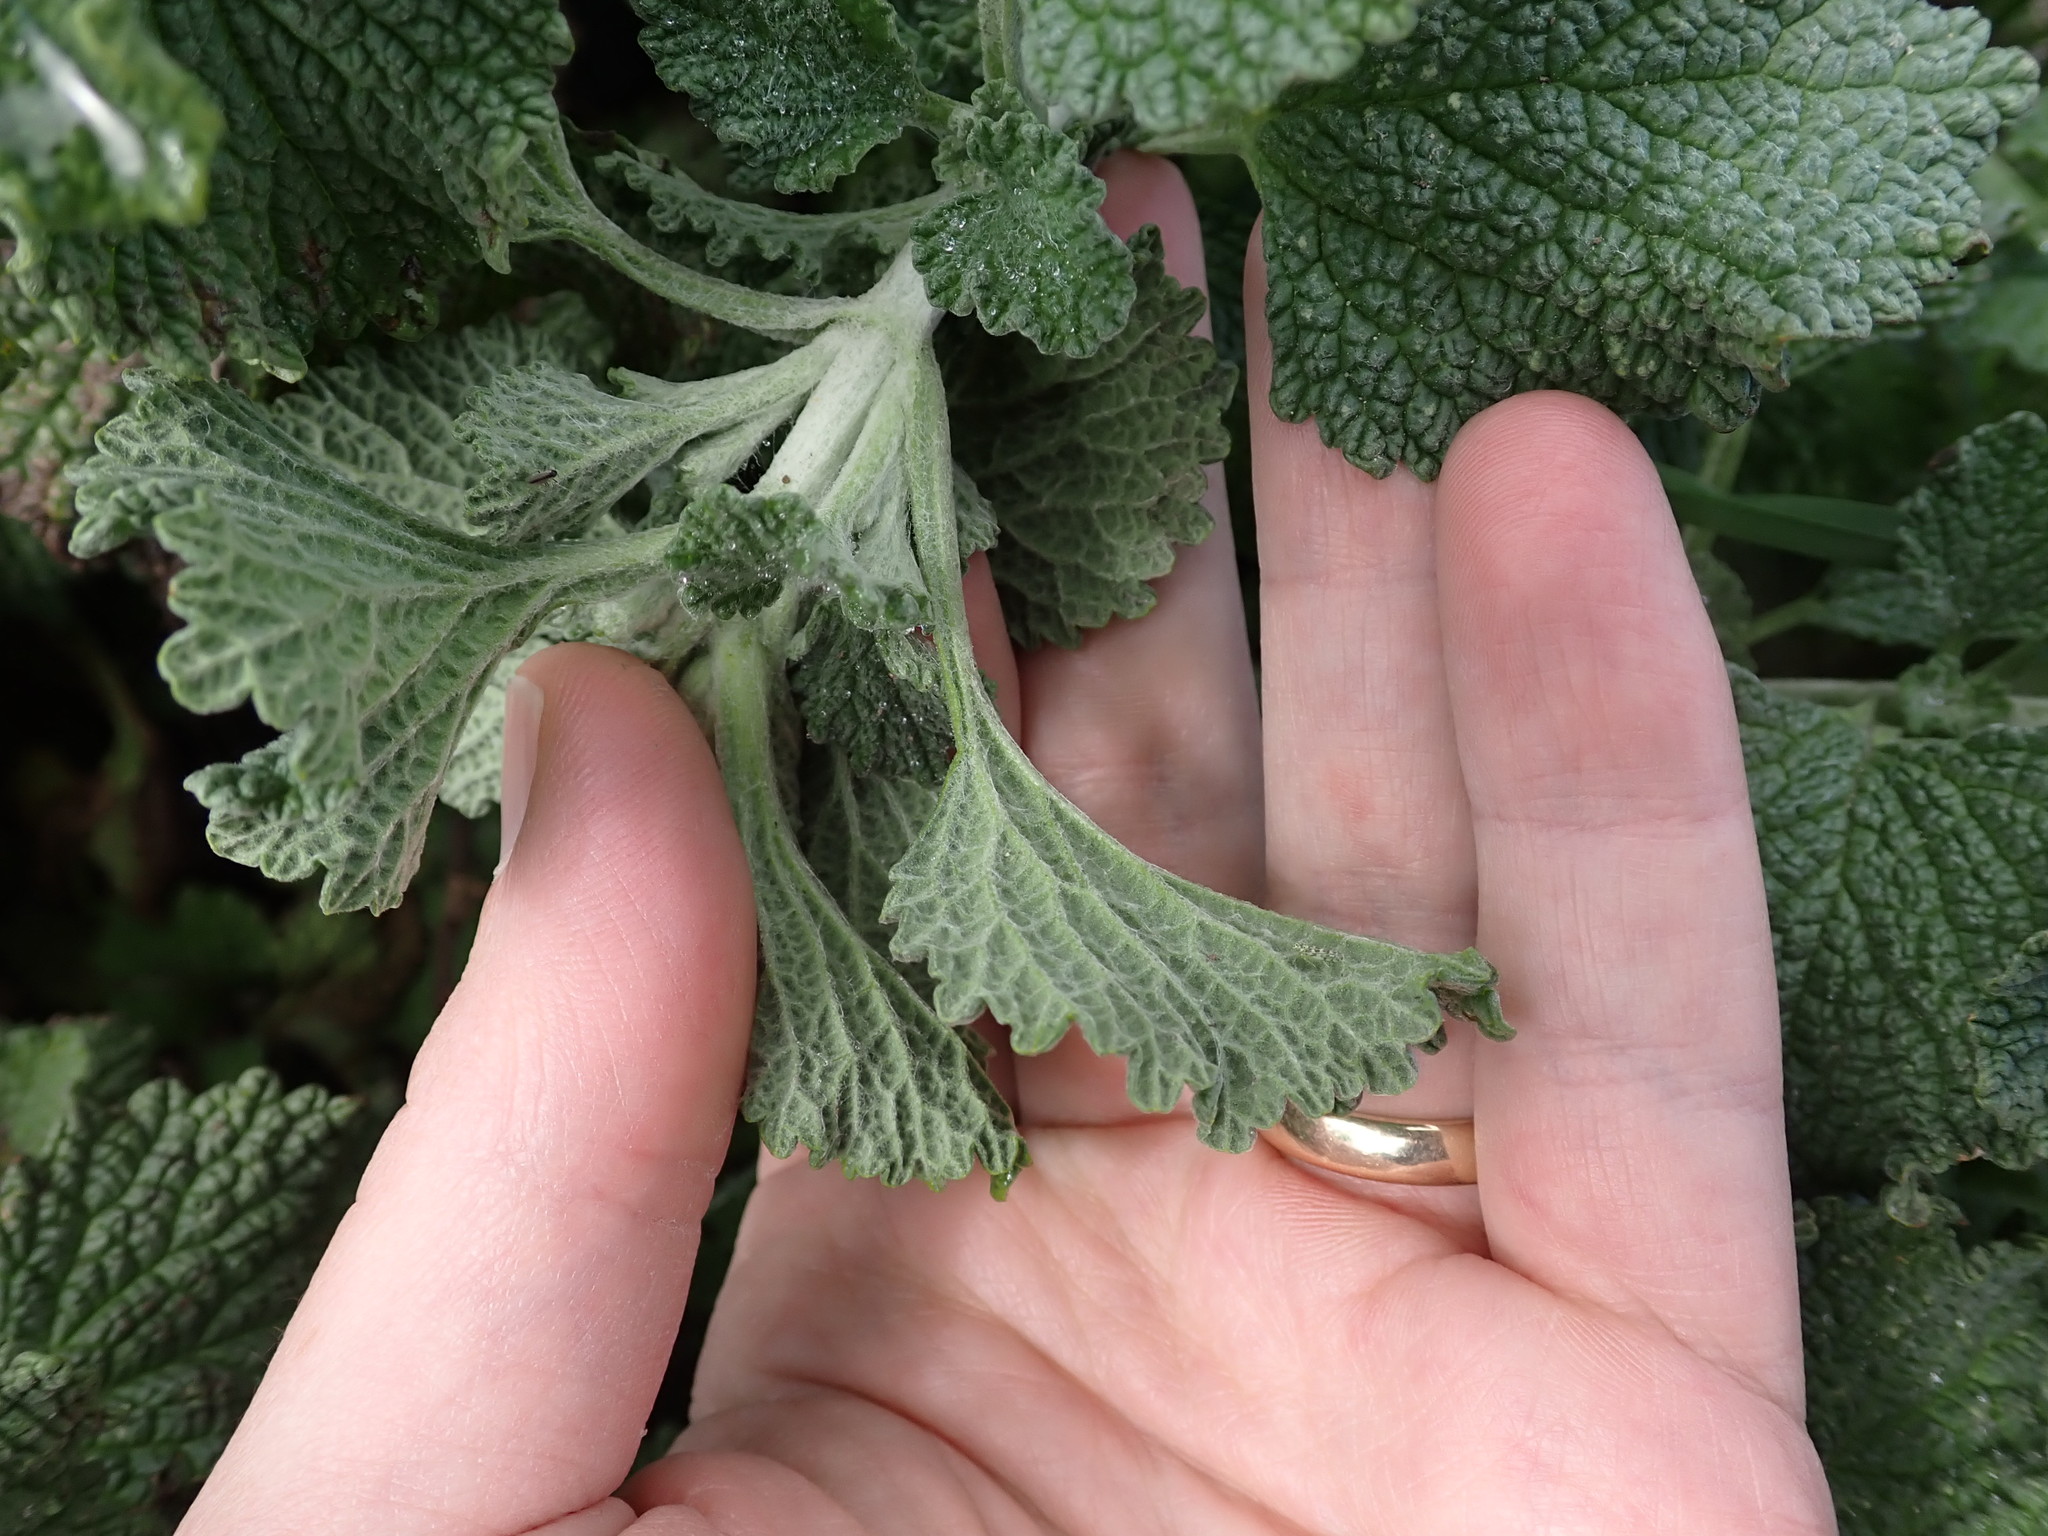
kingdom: Plantae
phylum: Tracheophyta
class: Magnoliopsida
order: Lamiales
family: Lamiaceae
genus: Marrubium
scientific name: Marrubium vulgare
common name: Horehound
